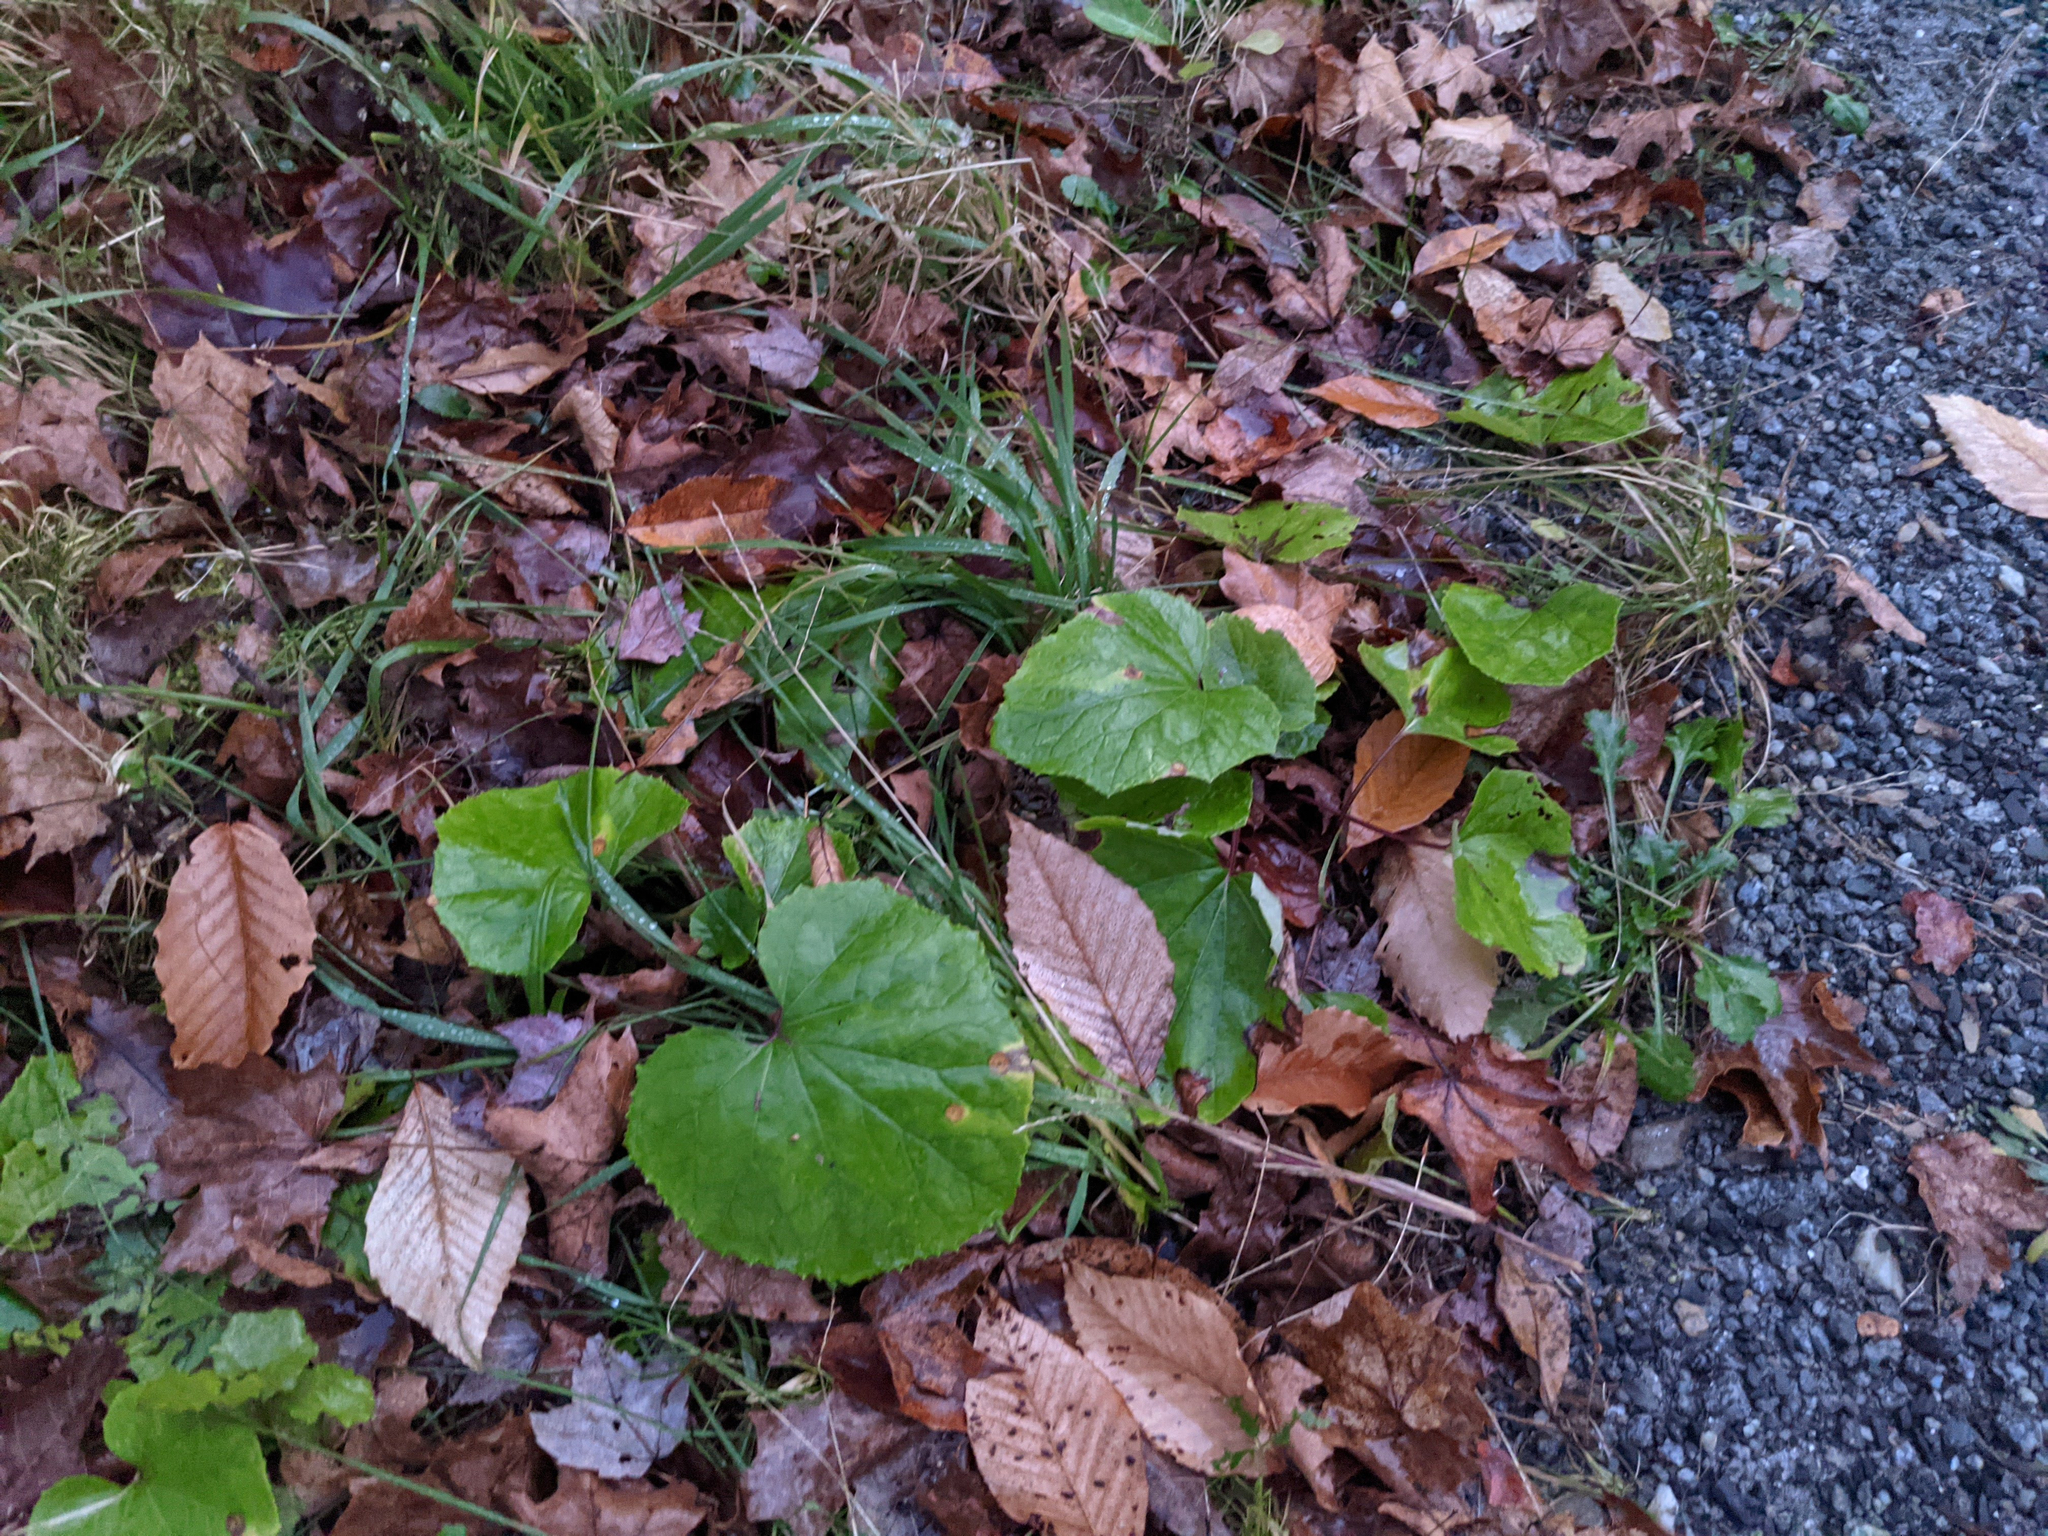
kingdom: Plantae
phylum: Tracheophyta
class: Magnoliopsida
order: Asterales
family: Asteraceae
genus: Tussilago
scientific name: Tussilago farfara
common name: Coltsfoot
